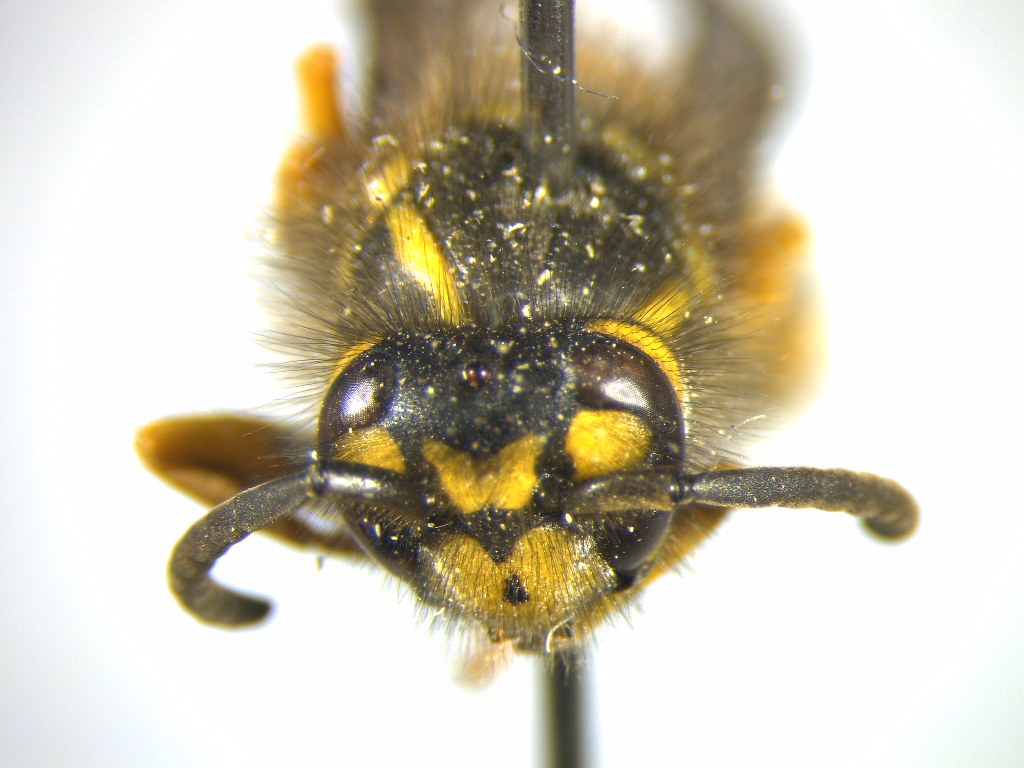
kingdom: Animalia
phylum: Arthropoda
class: Insecta
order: Hymenoptera
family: Vespidae
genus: Vespula
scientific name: Vespula germanica
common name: German wasp
